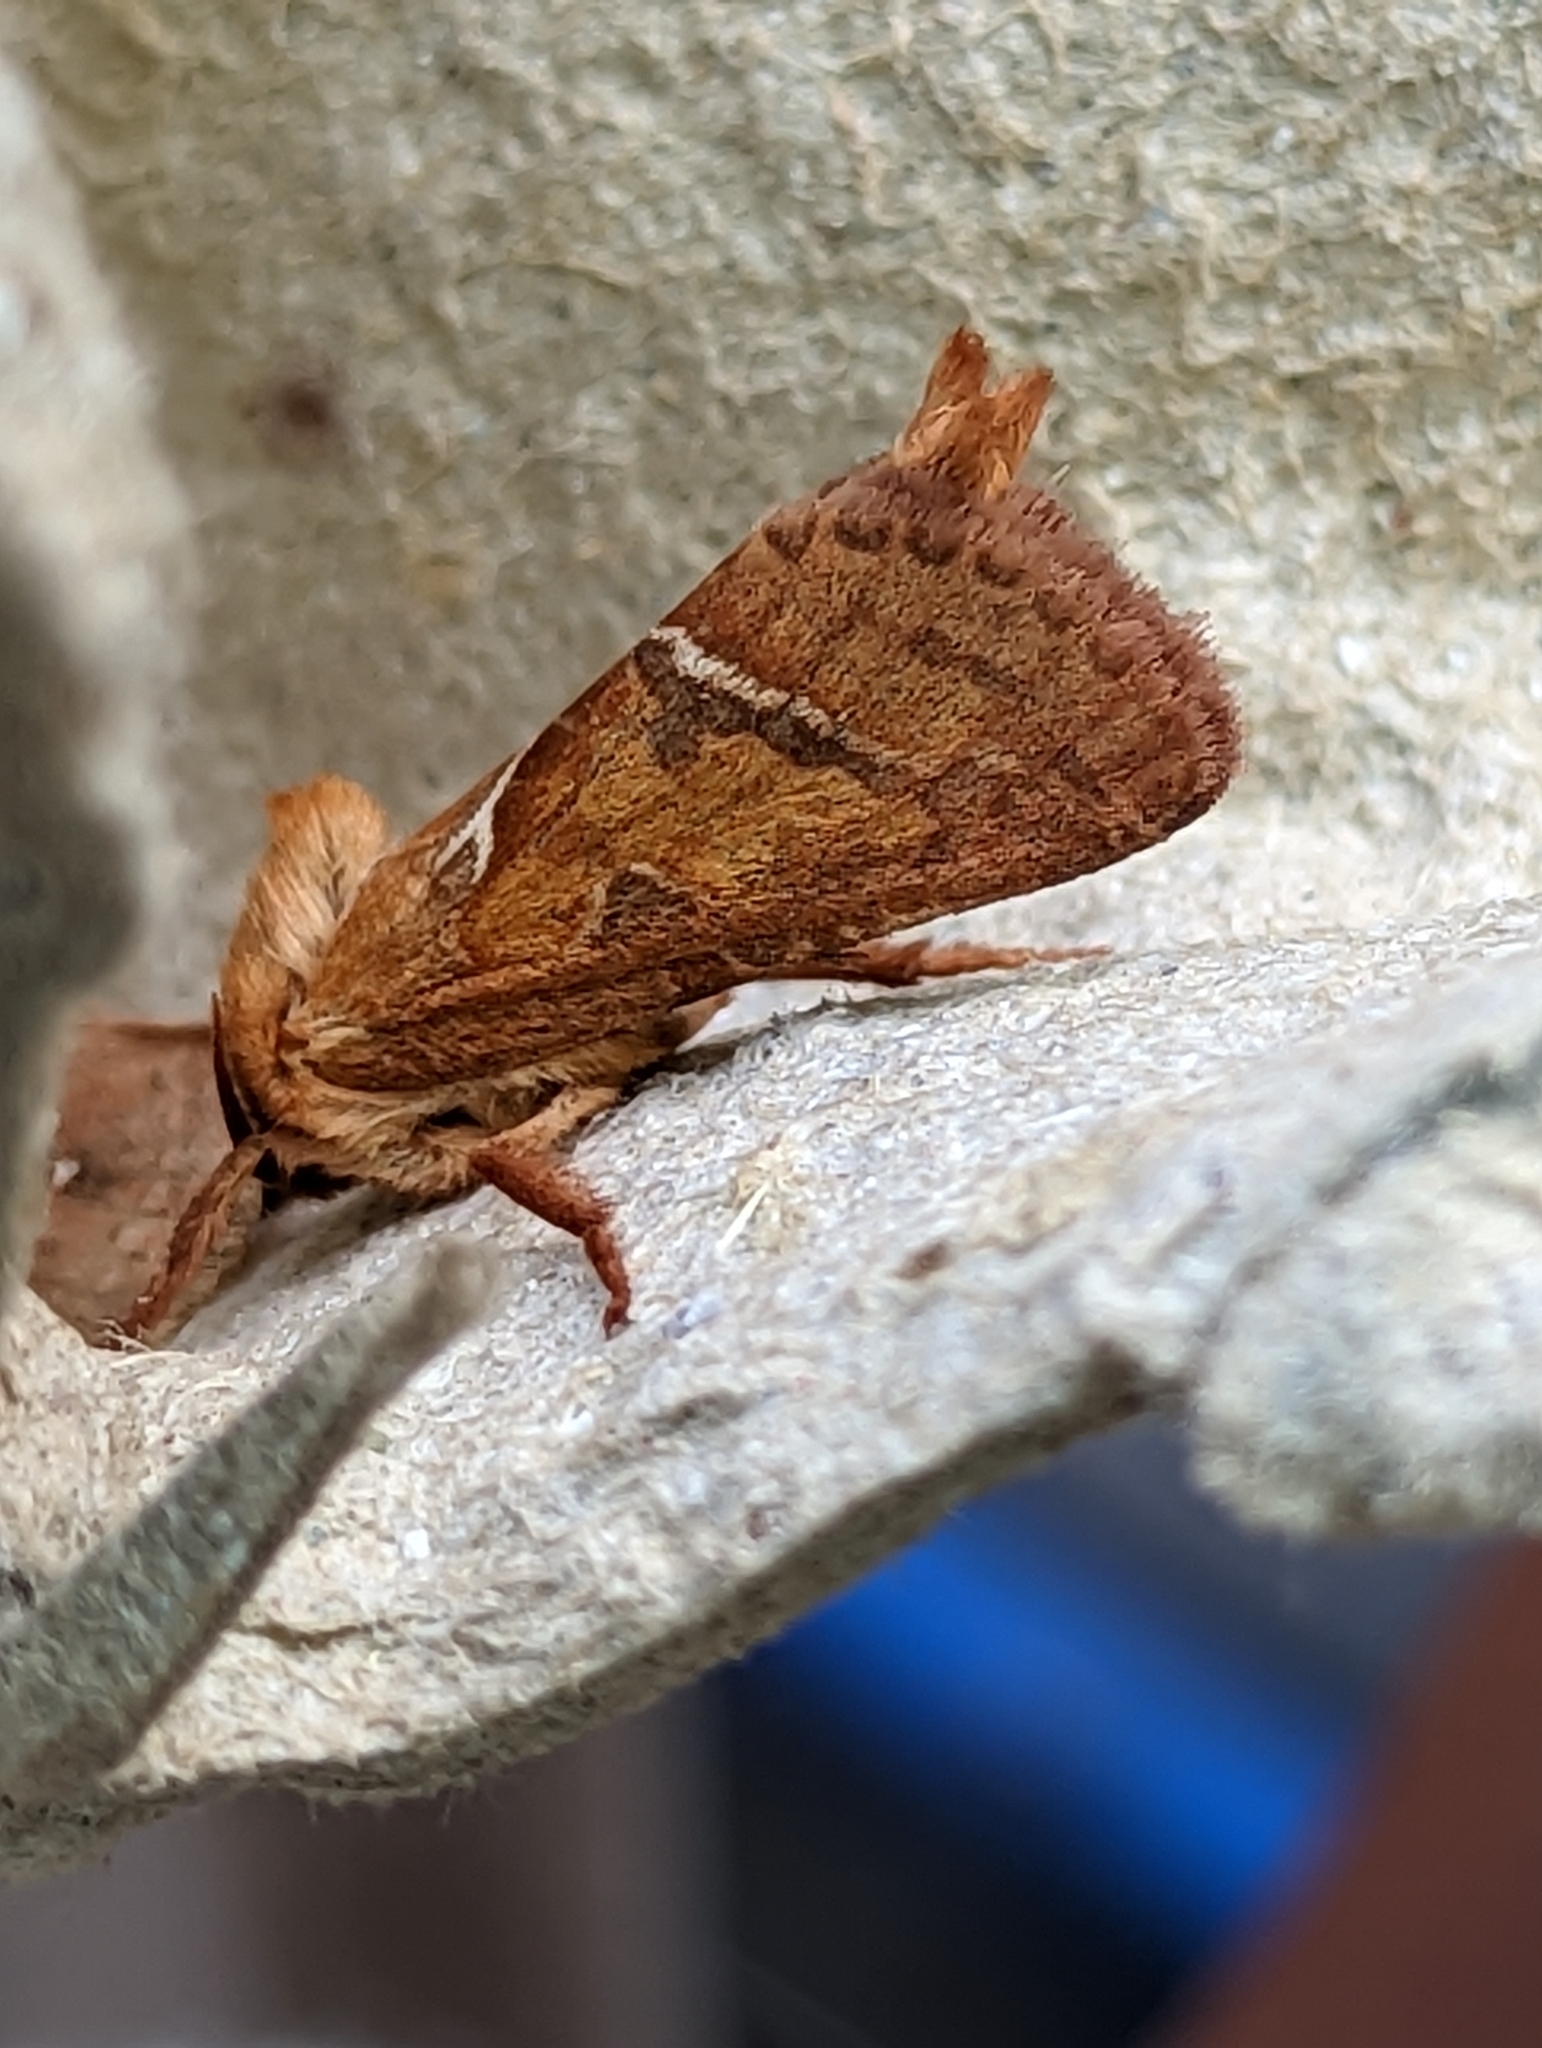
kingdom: Animalia
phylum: Arthropoda
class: Insecta
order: Lepidoptera
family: Hepialidae
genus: Triodia
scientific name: Triodia sylvina
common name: Orange swift
